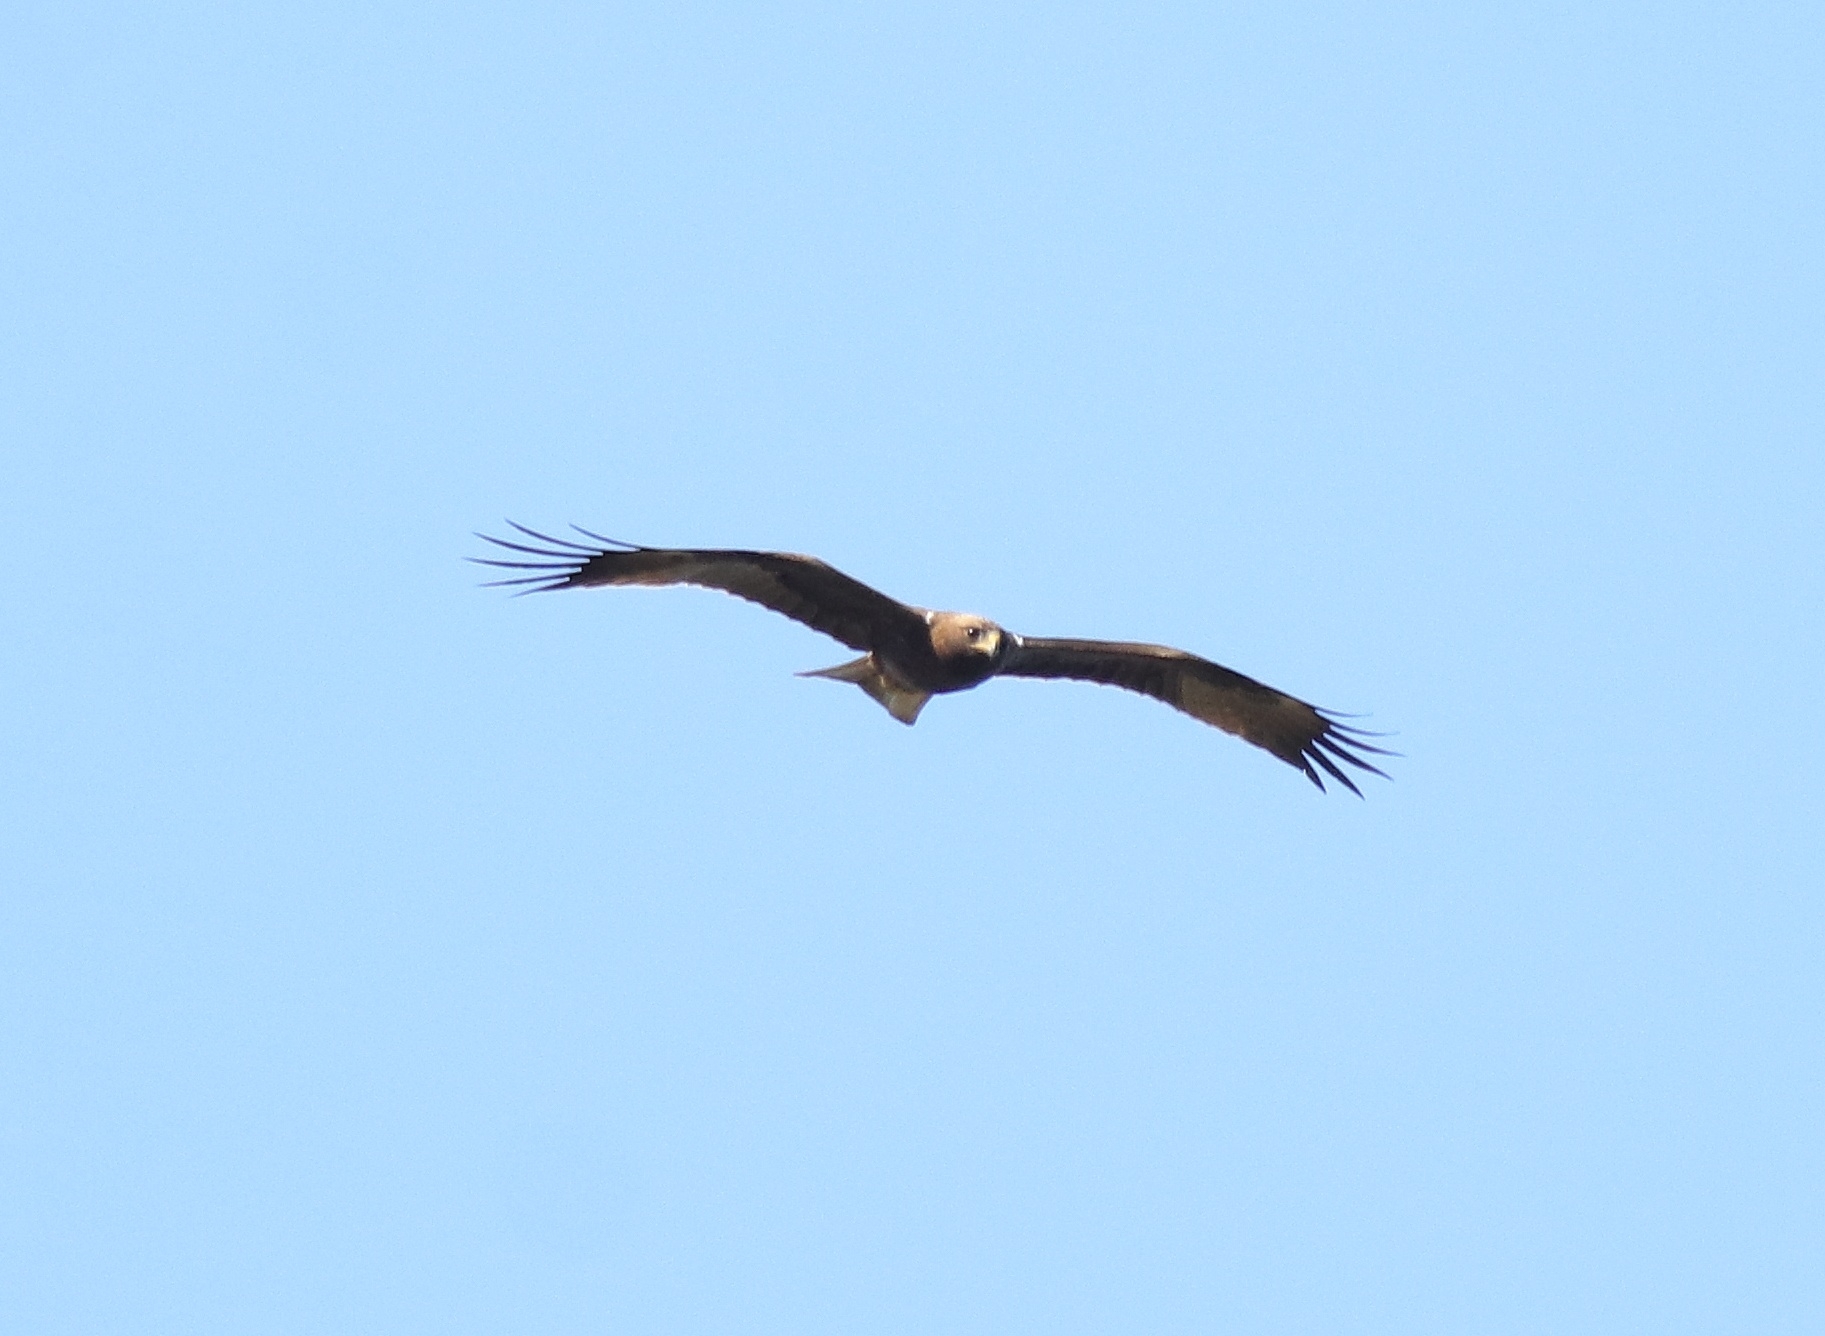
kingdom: Animalia
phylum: Chordata
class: Aves
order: Accipitriformes
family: Accipitridae
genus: Hieraaetus
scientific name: Hieraaetus pennatus
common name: Booted eagle
